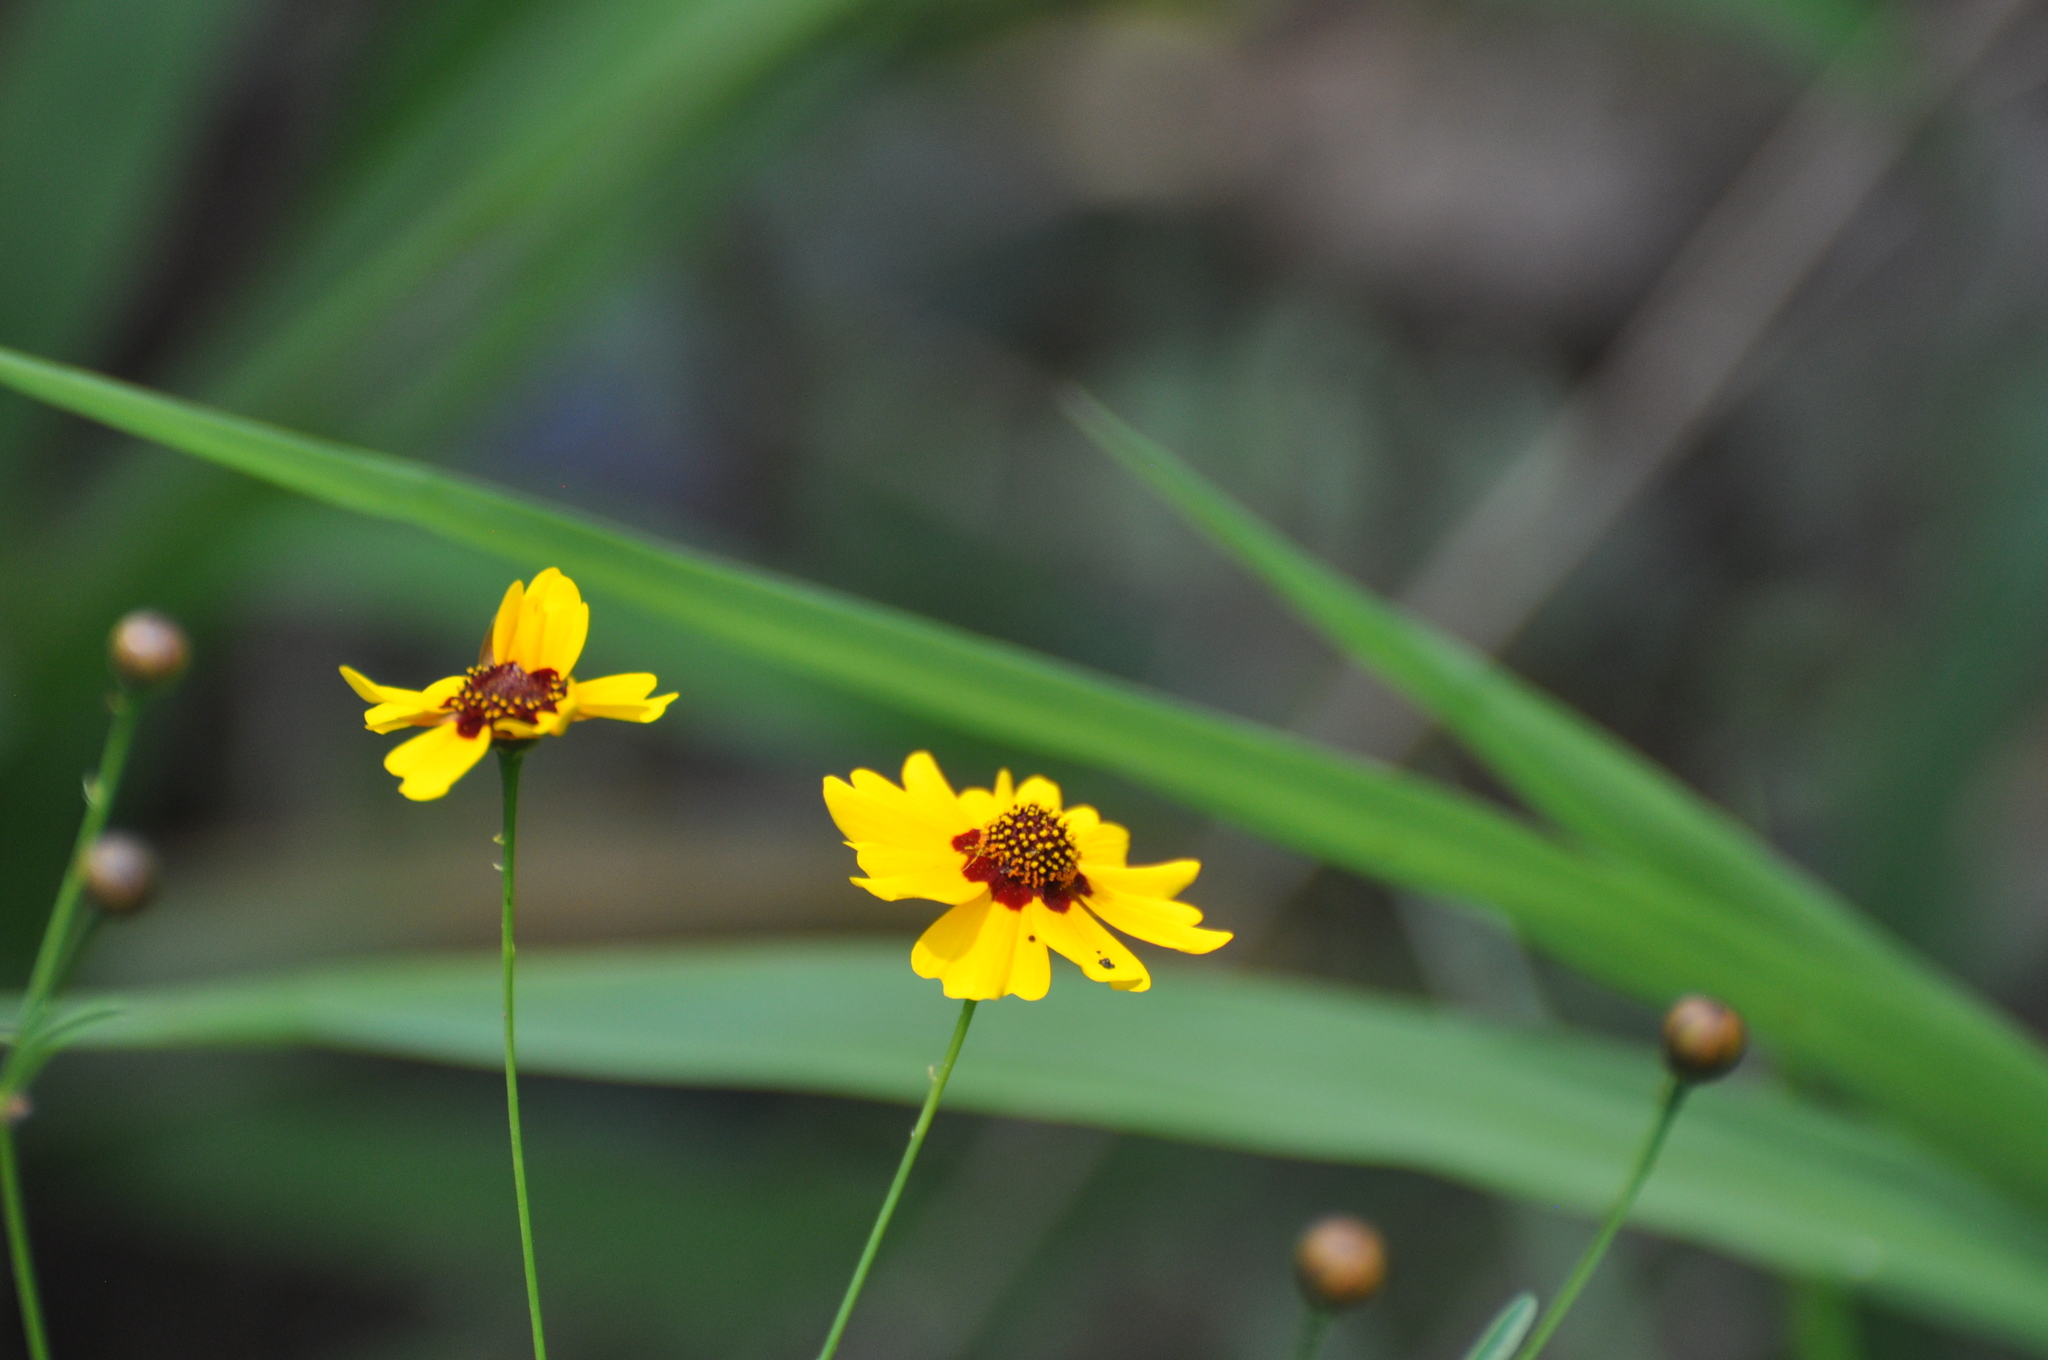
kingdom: Plantae
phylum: Tracheophyta
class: Magnoliopsida
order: Asterales
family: Asteraceae
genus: Coreopsis
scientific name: Coreopsis tinctoria
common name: Garden tickseed
